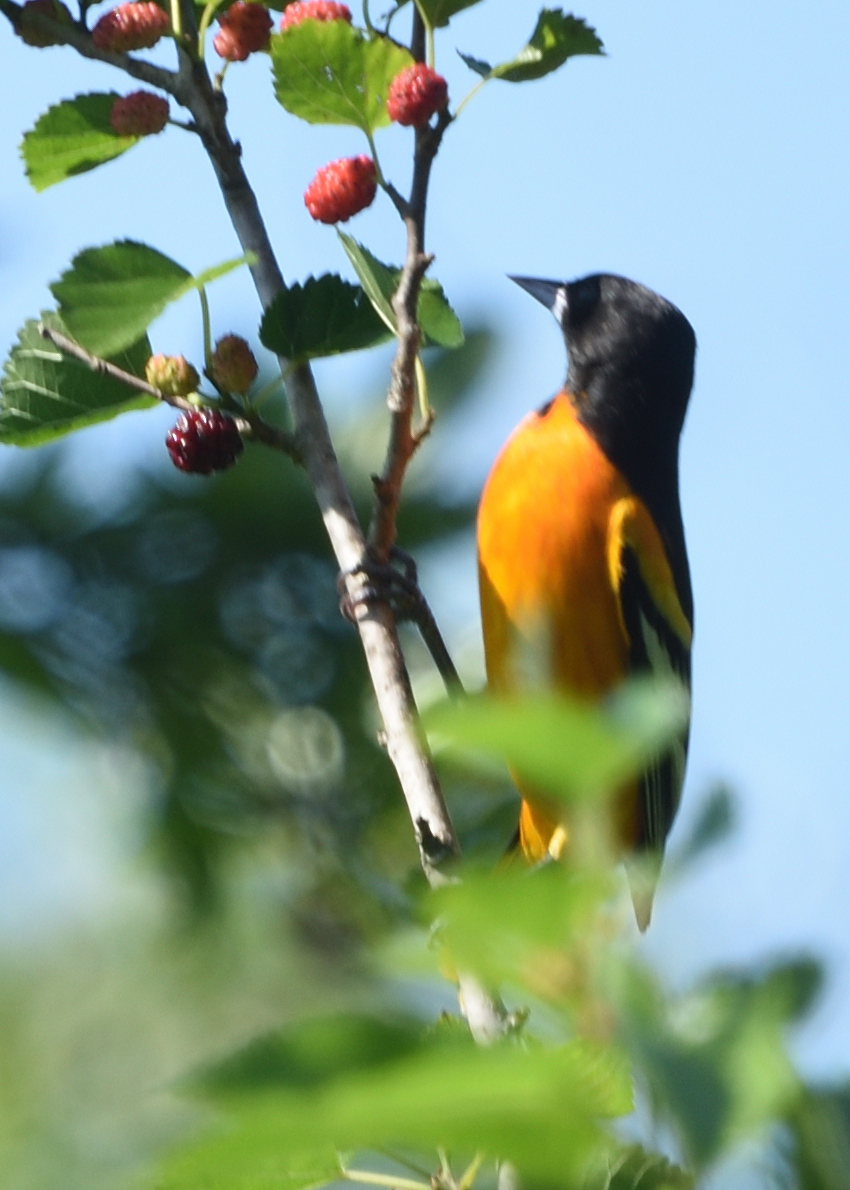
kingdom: Animalia
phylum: Chordata
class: Aves
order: Passeriformes
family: Icteridae
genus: Icterus
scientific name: Icterus galbula
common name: Baltimore oriole
